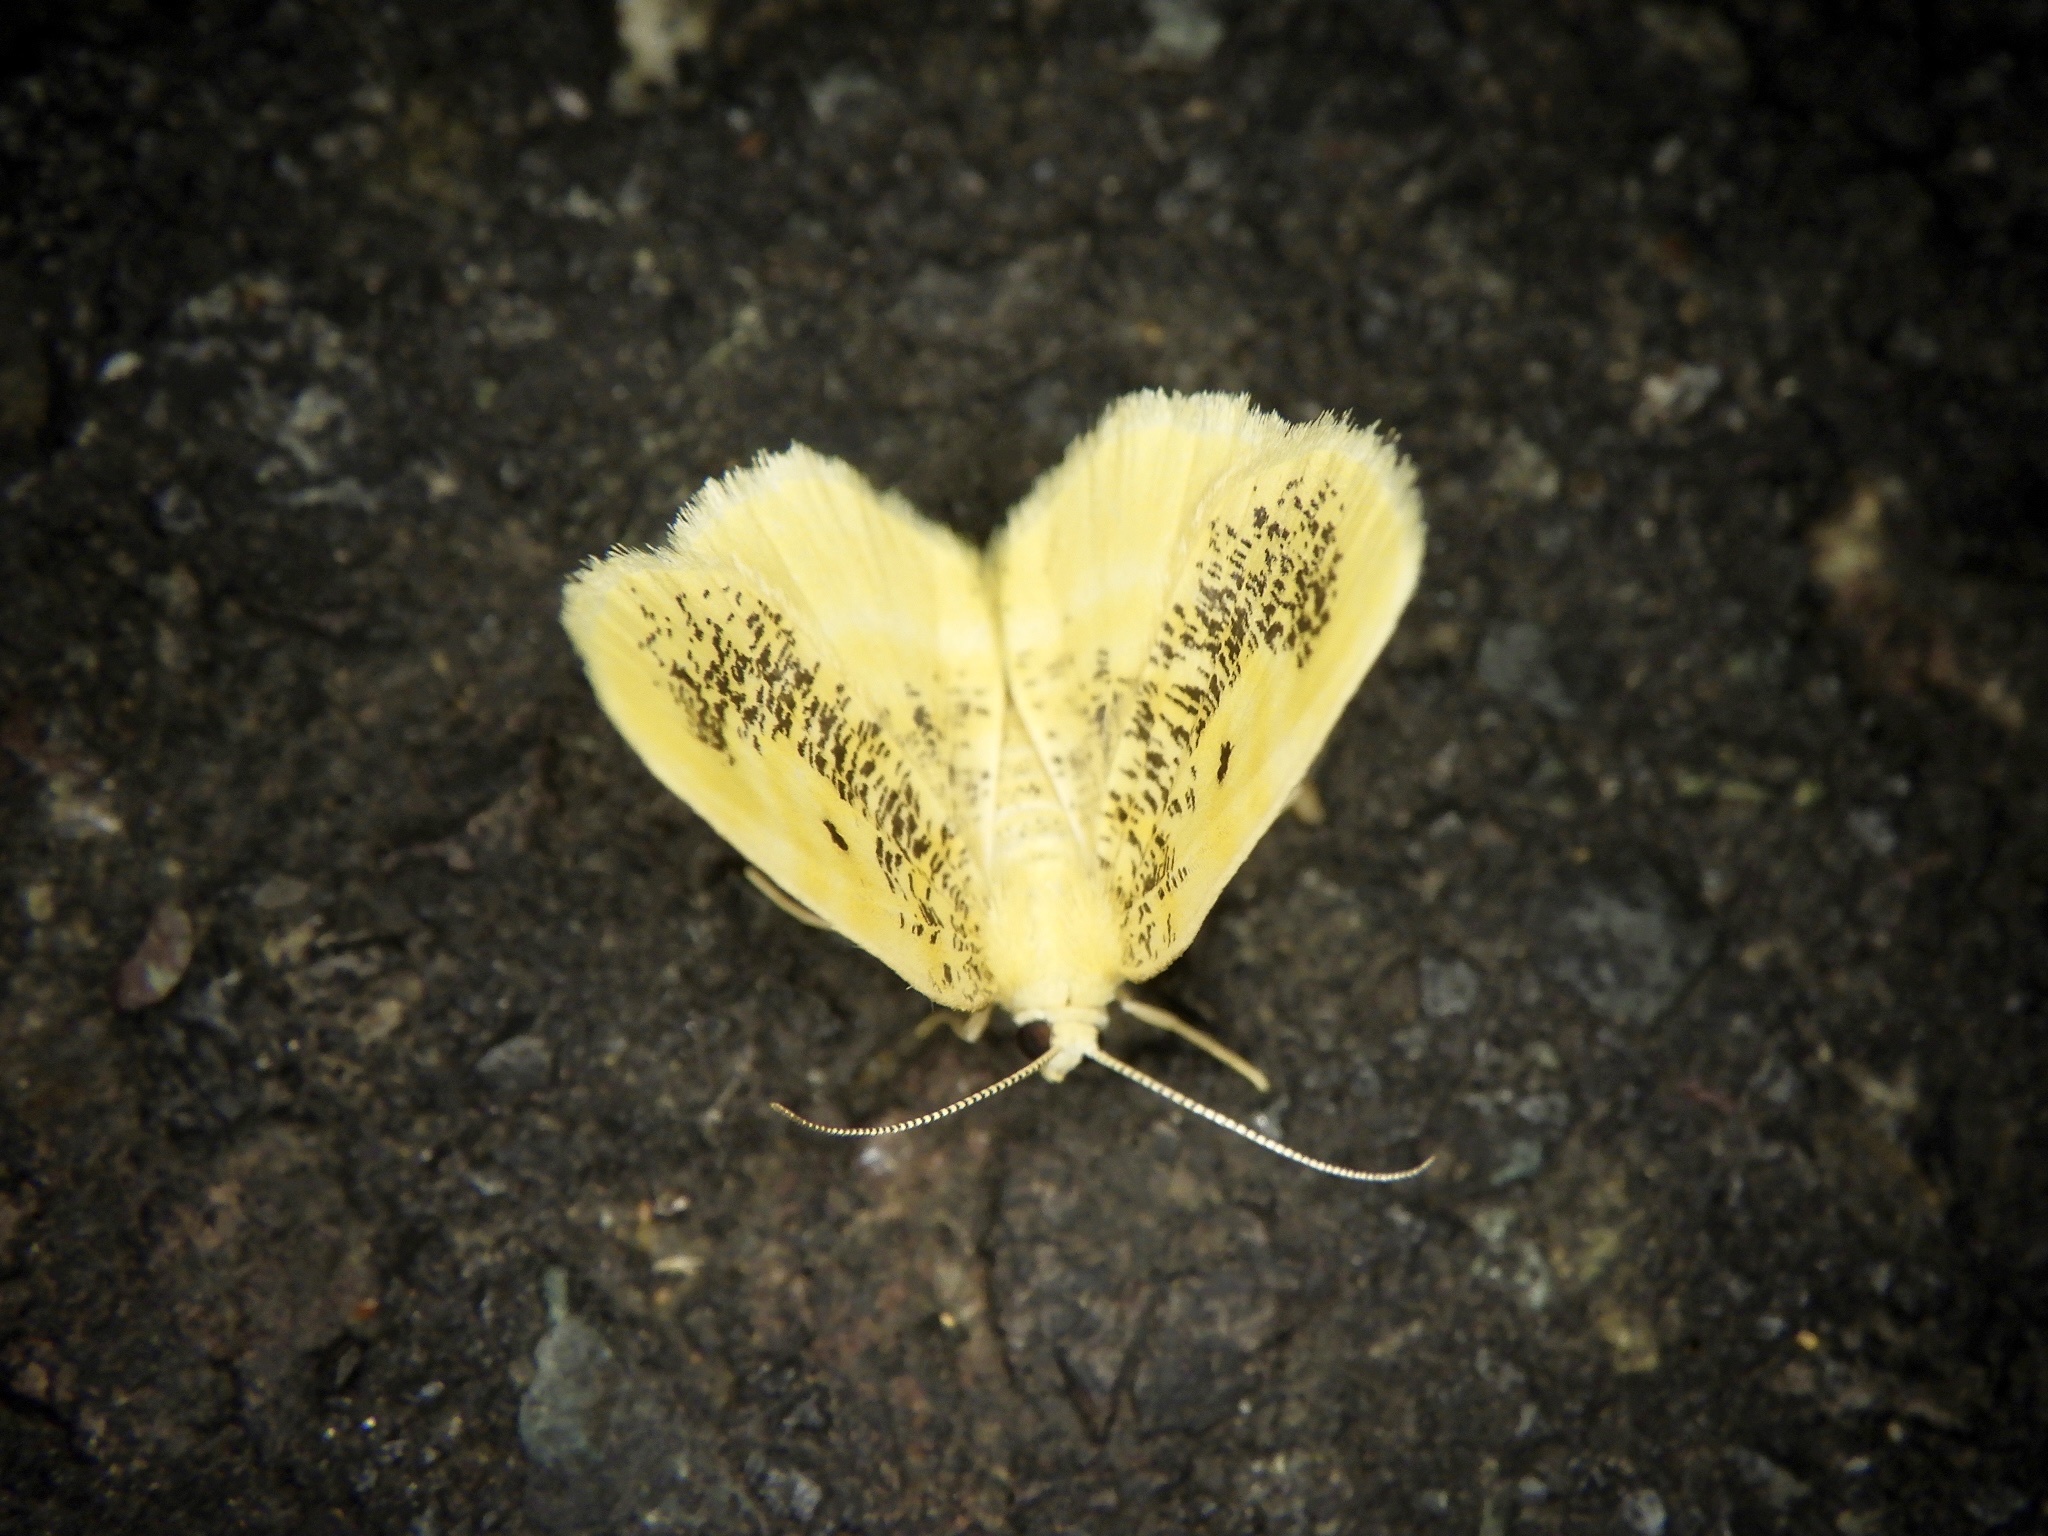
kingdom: Animalia
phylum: Arthropoda
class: Insecta
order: Lepidoptera
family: Geometridae
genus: Euchristophia
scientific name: Euchristophia cumulata
